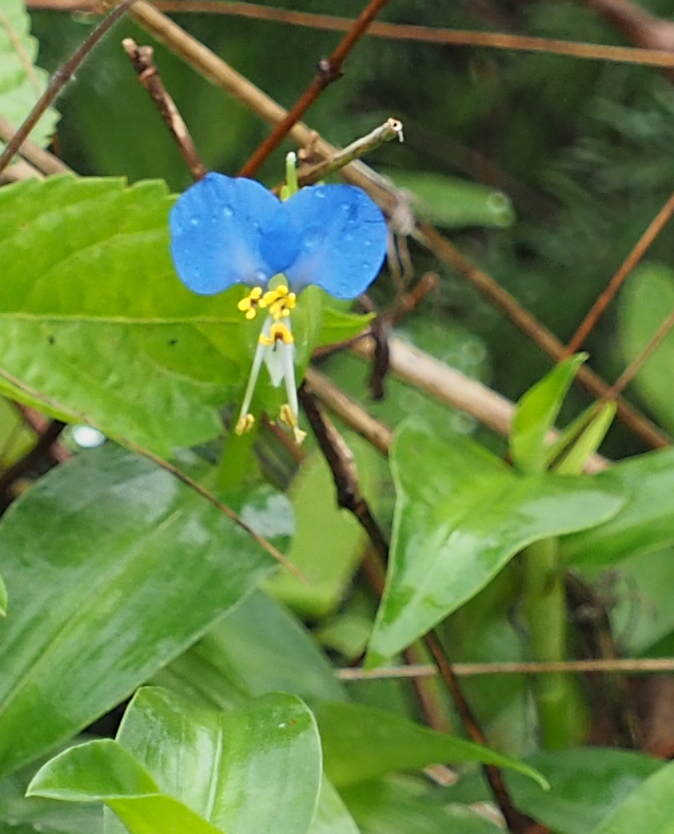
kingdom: Plantae
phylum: Tracheophyta
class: Liliopsida
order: Commelinales
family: Commelinaceae
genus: Commelina
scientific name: Commelina communis
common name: Asiatic dayflower
